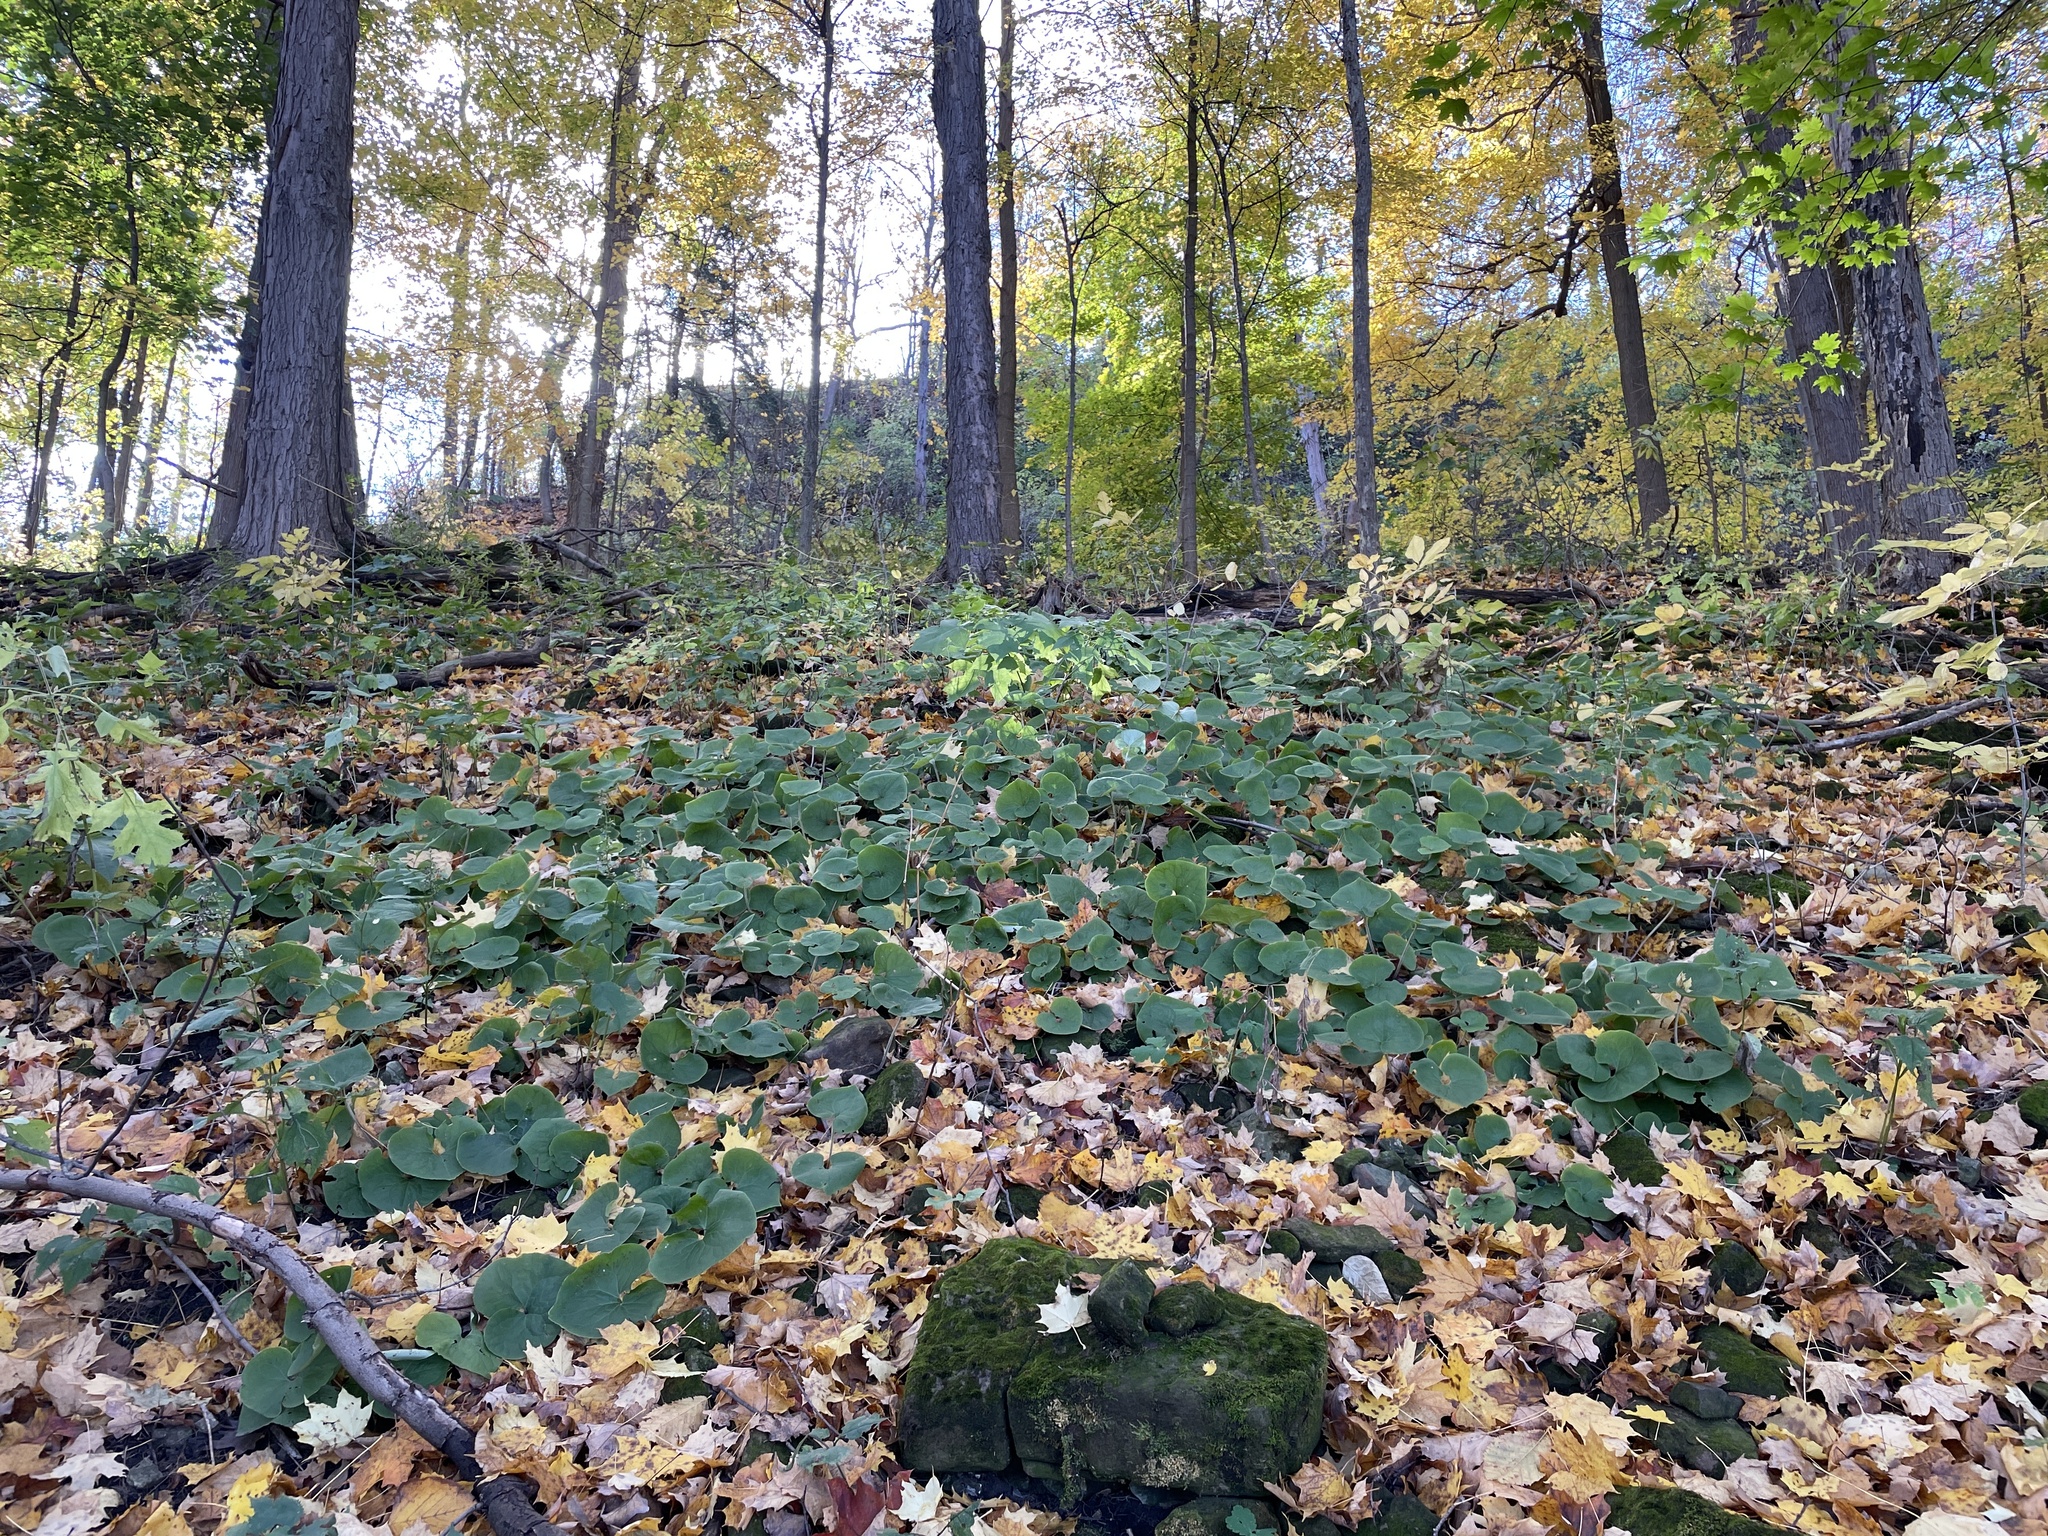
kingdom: Plantae
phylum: Tracheophyta
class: Magnoliopsida
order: Piperales
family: Aristolochiaceae
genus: Asarum
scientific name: Asarum canadense
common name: Wild ginger
